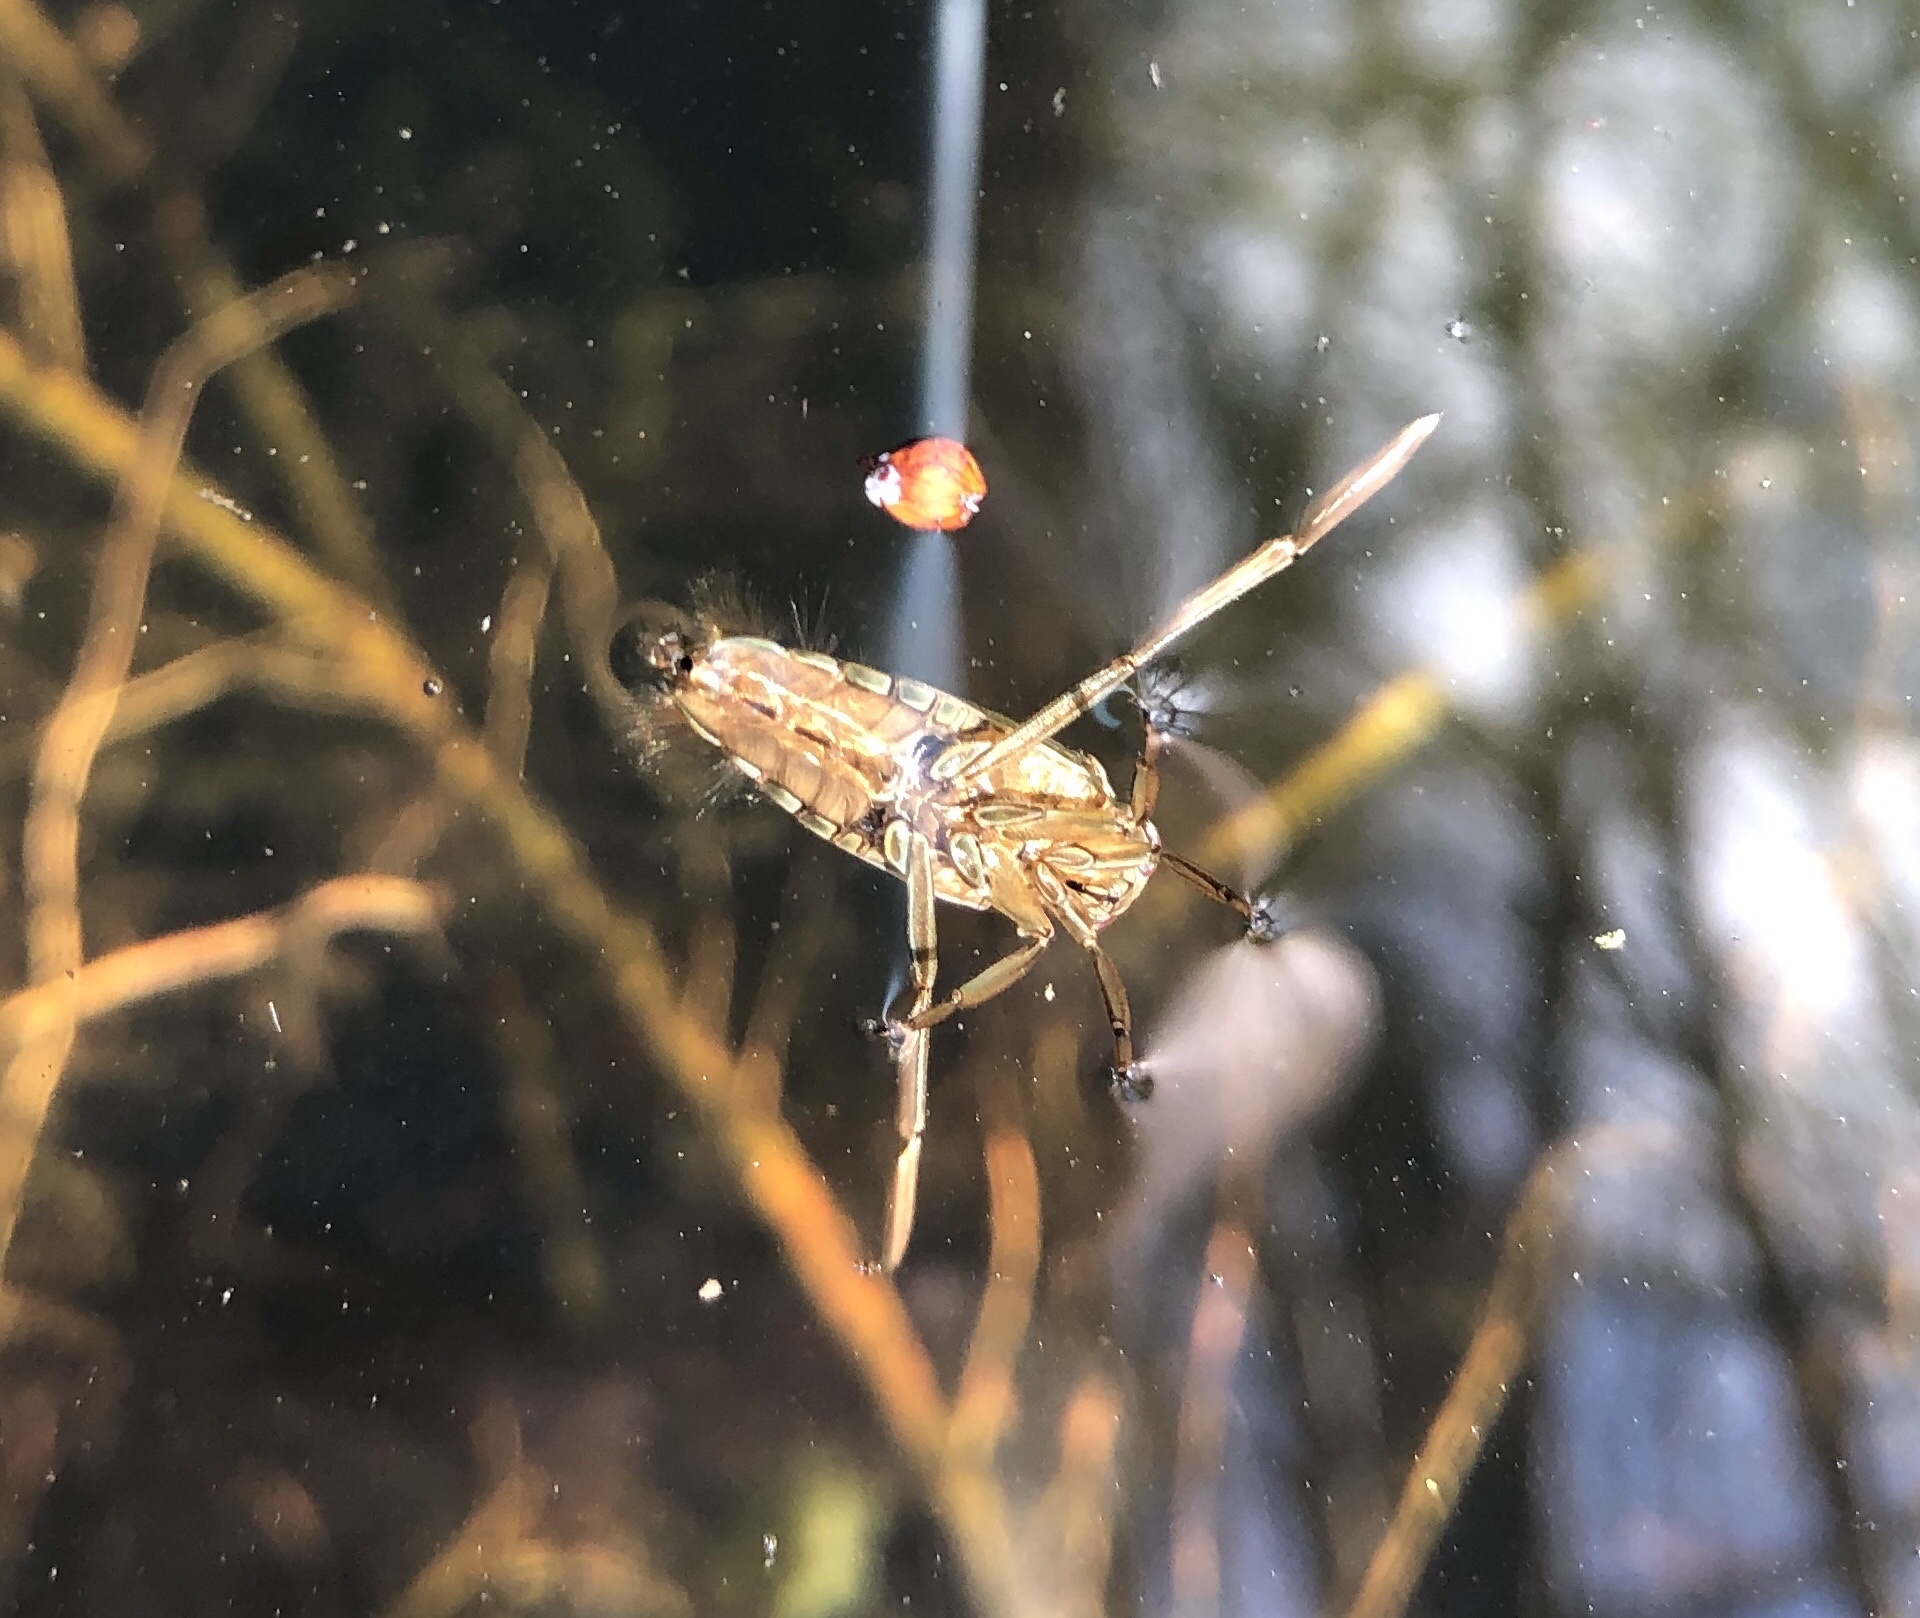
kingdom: Animalia
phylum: Arthropoda
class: Insecta
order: Hemiptera
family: Notonectidae
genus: Notonecta
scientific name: Notonecta
